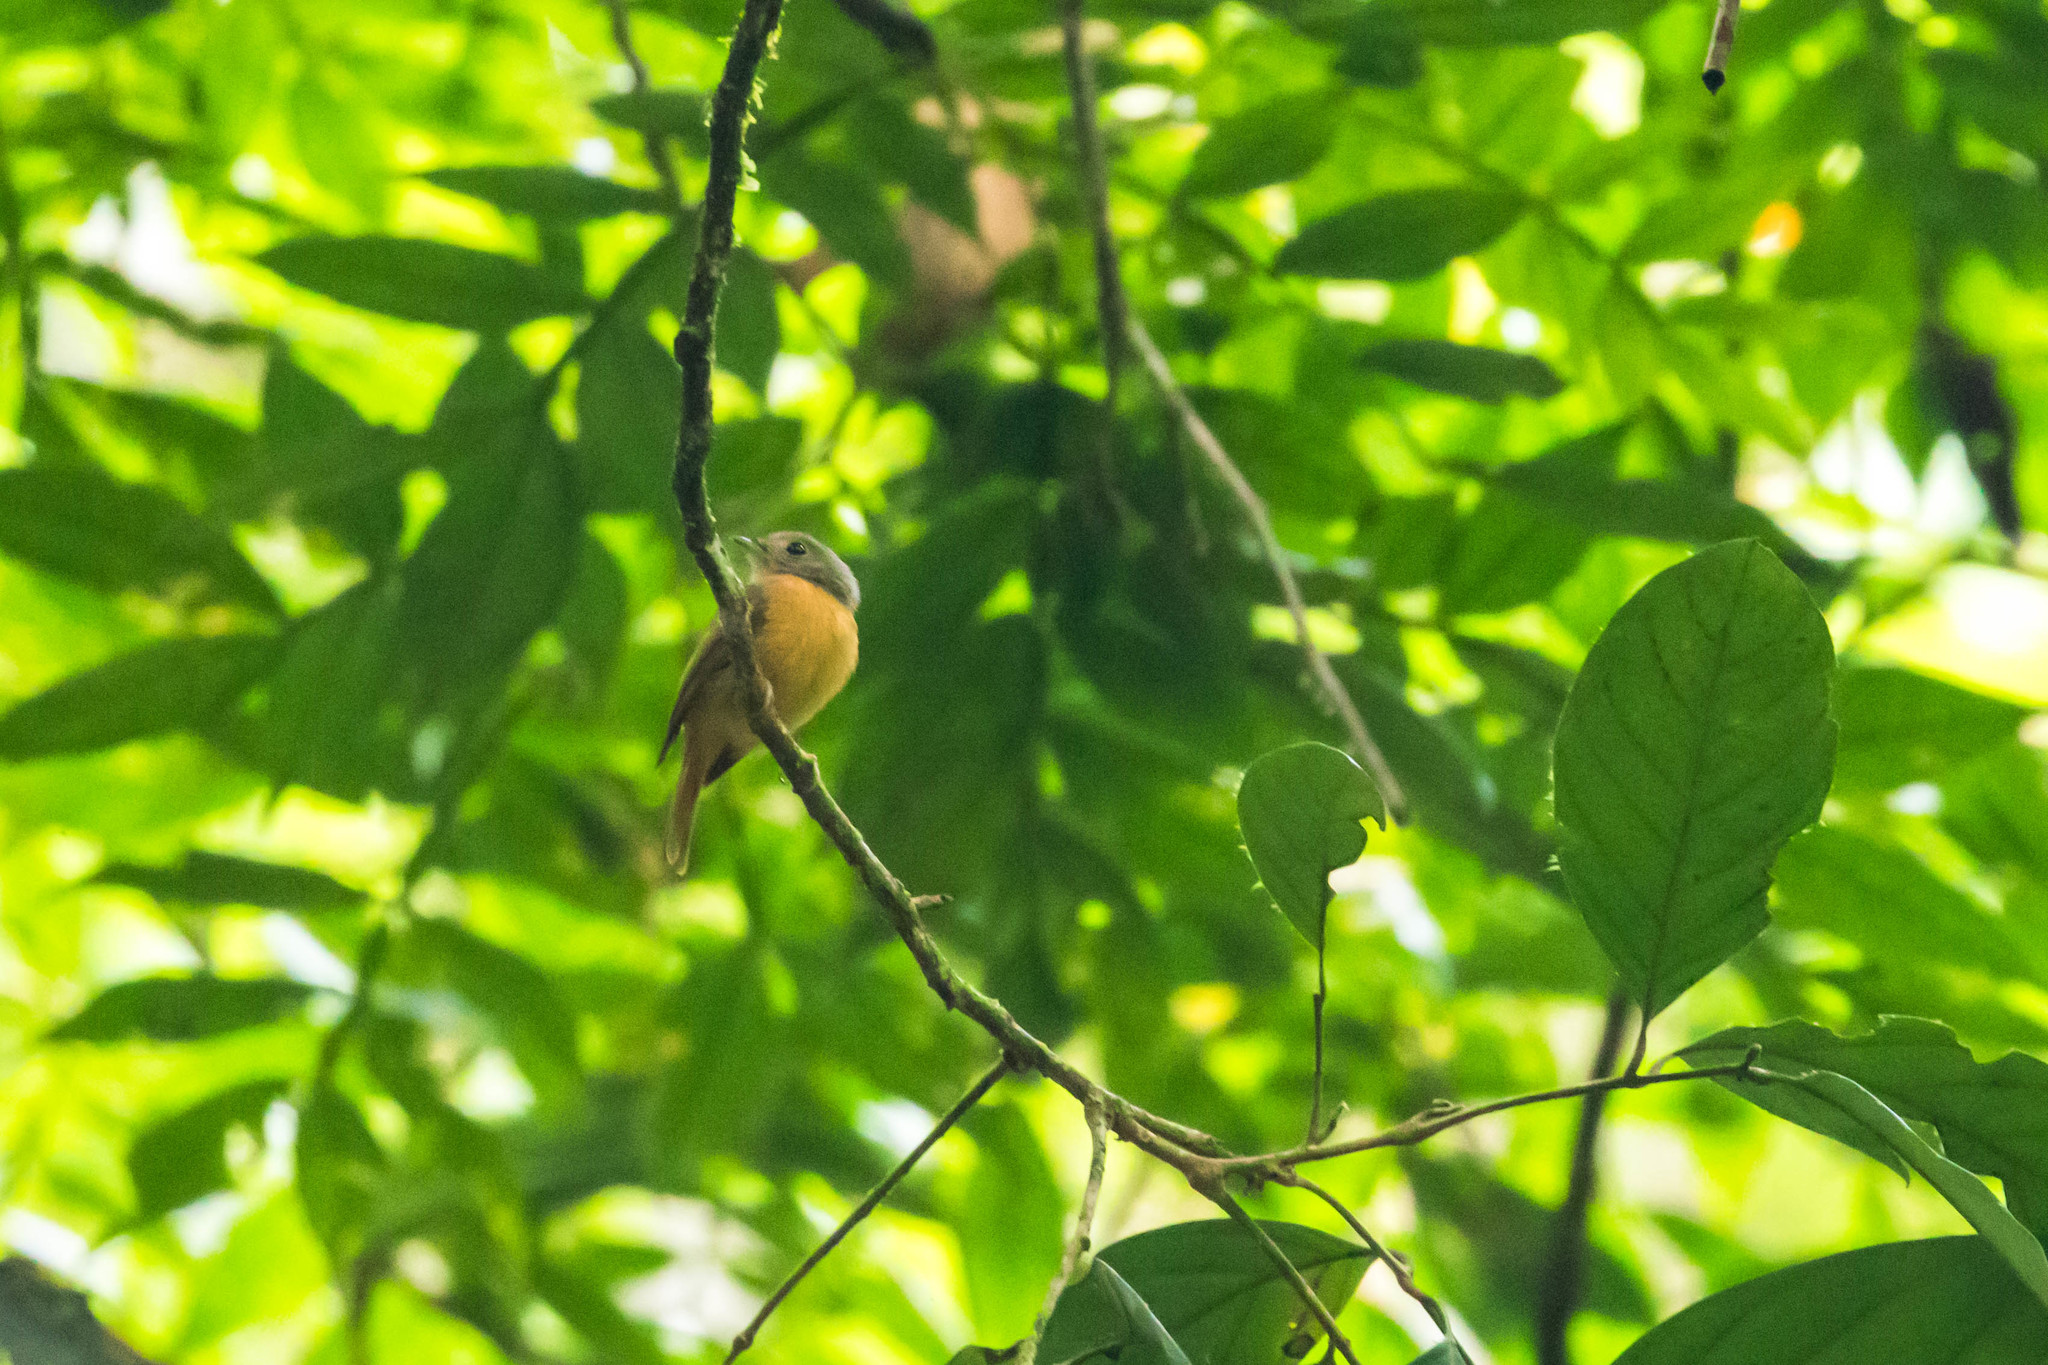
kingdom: Animalia
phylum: Chordata
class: Aves
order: Passeriformes
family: Tyrannidae
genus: Terenotriccus
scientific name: Terenotriccus erythrurus
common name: Ruddy-tailed flycatcher
